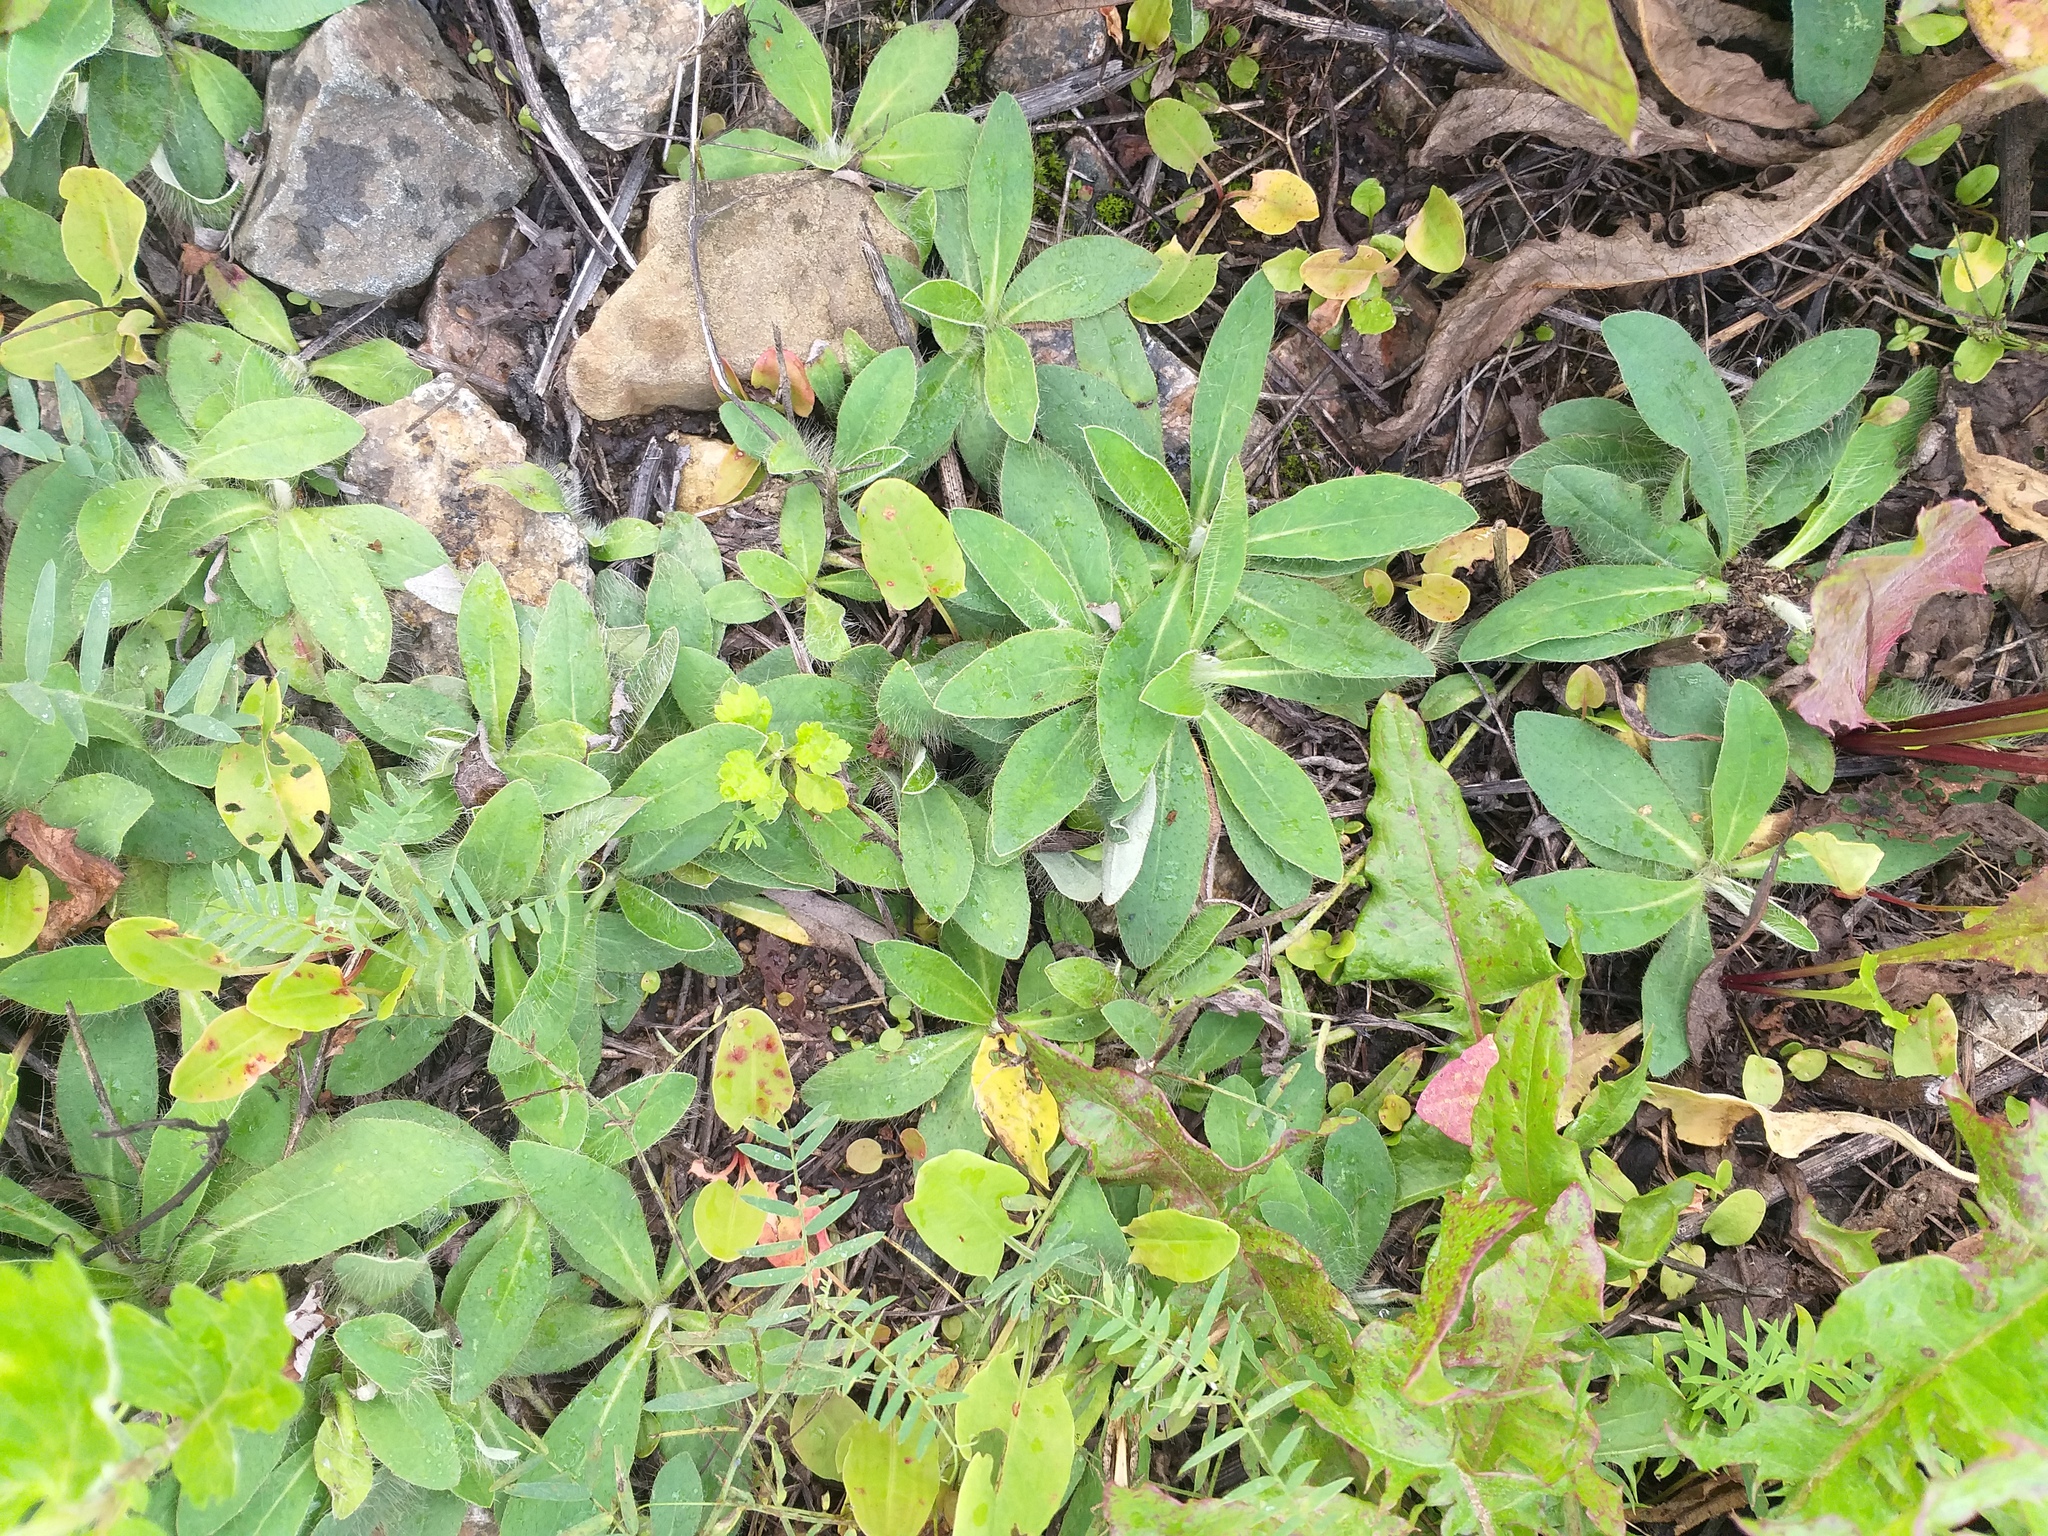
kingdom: Plantae
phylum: Tracheophyta
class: Magnoliopsida
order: Asterales
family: Asteraceae
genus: Pilosella
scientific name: Pilosella officinarum
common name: Mouse-ear hawkweed
